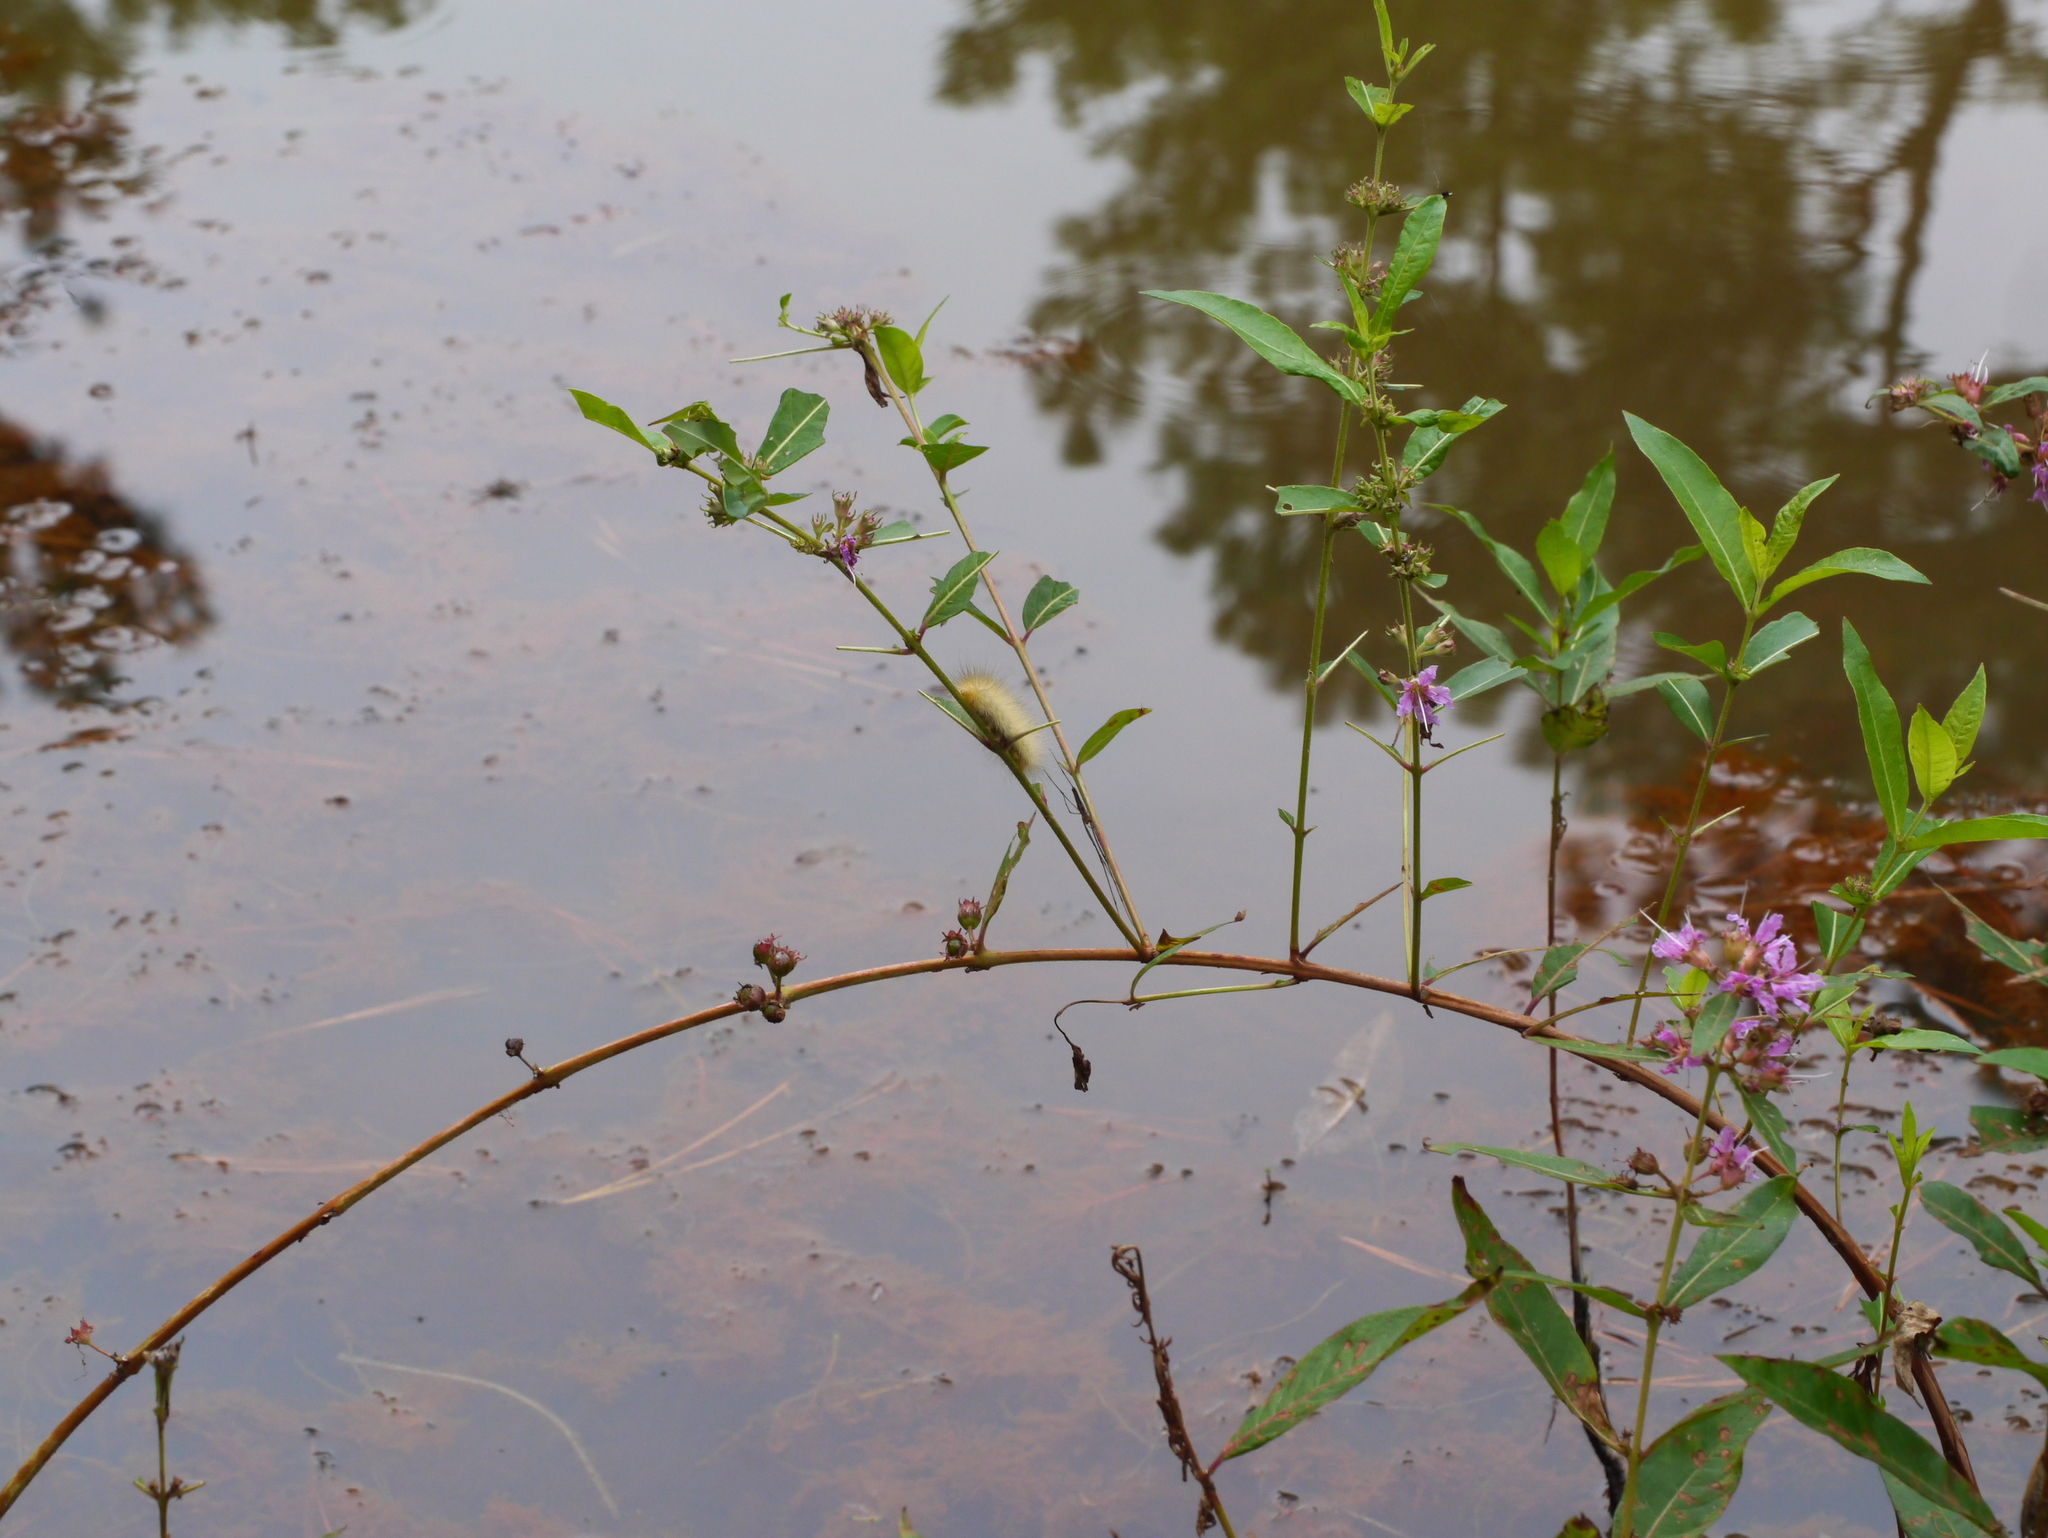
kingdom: Plantae
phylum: Tracheophyta
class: Magnoliopsida
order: Myrtales
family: Lythraceae
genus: Decodon
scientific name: Decodon verticillatus
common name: Hairy swamp loosestrife
